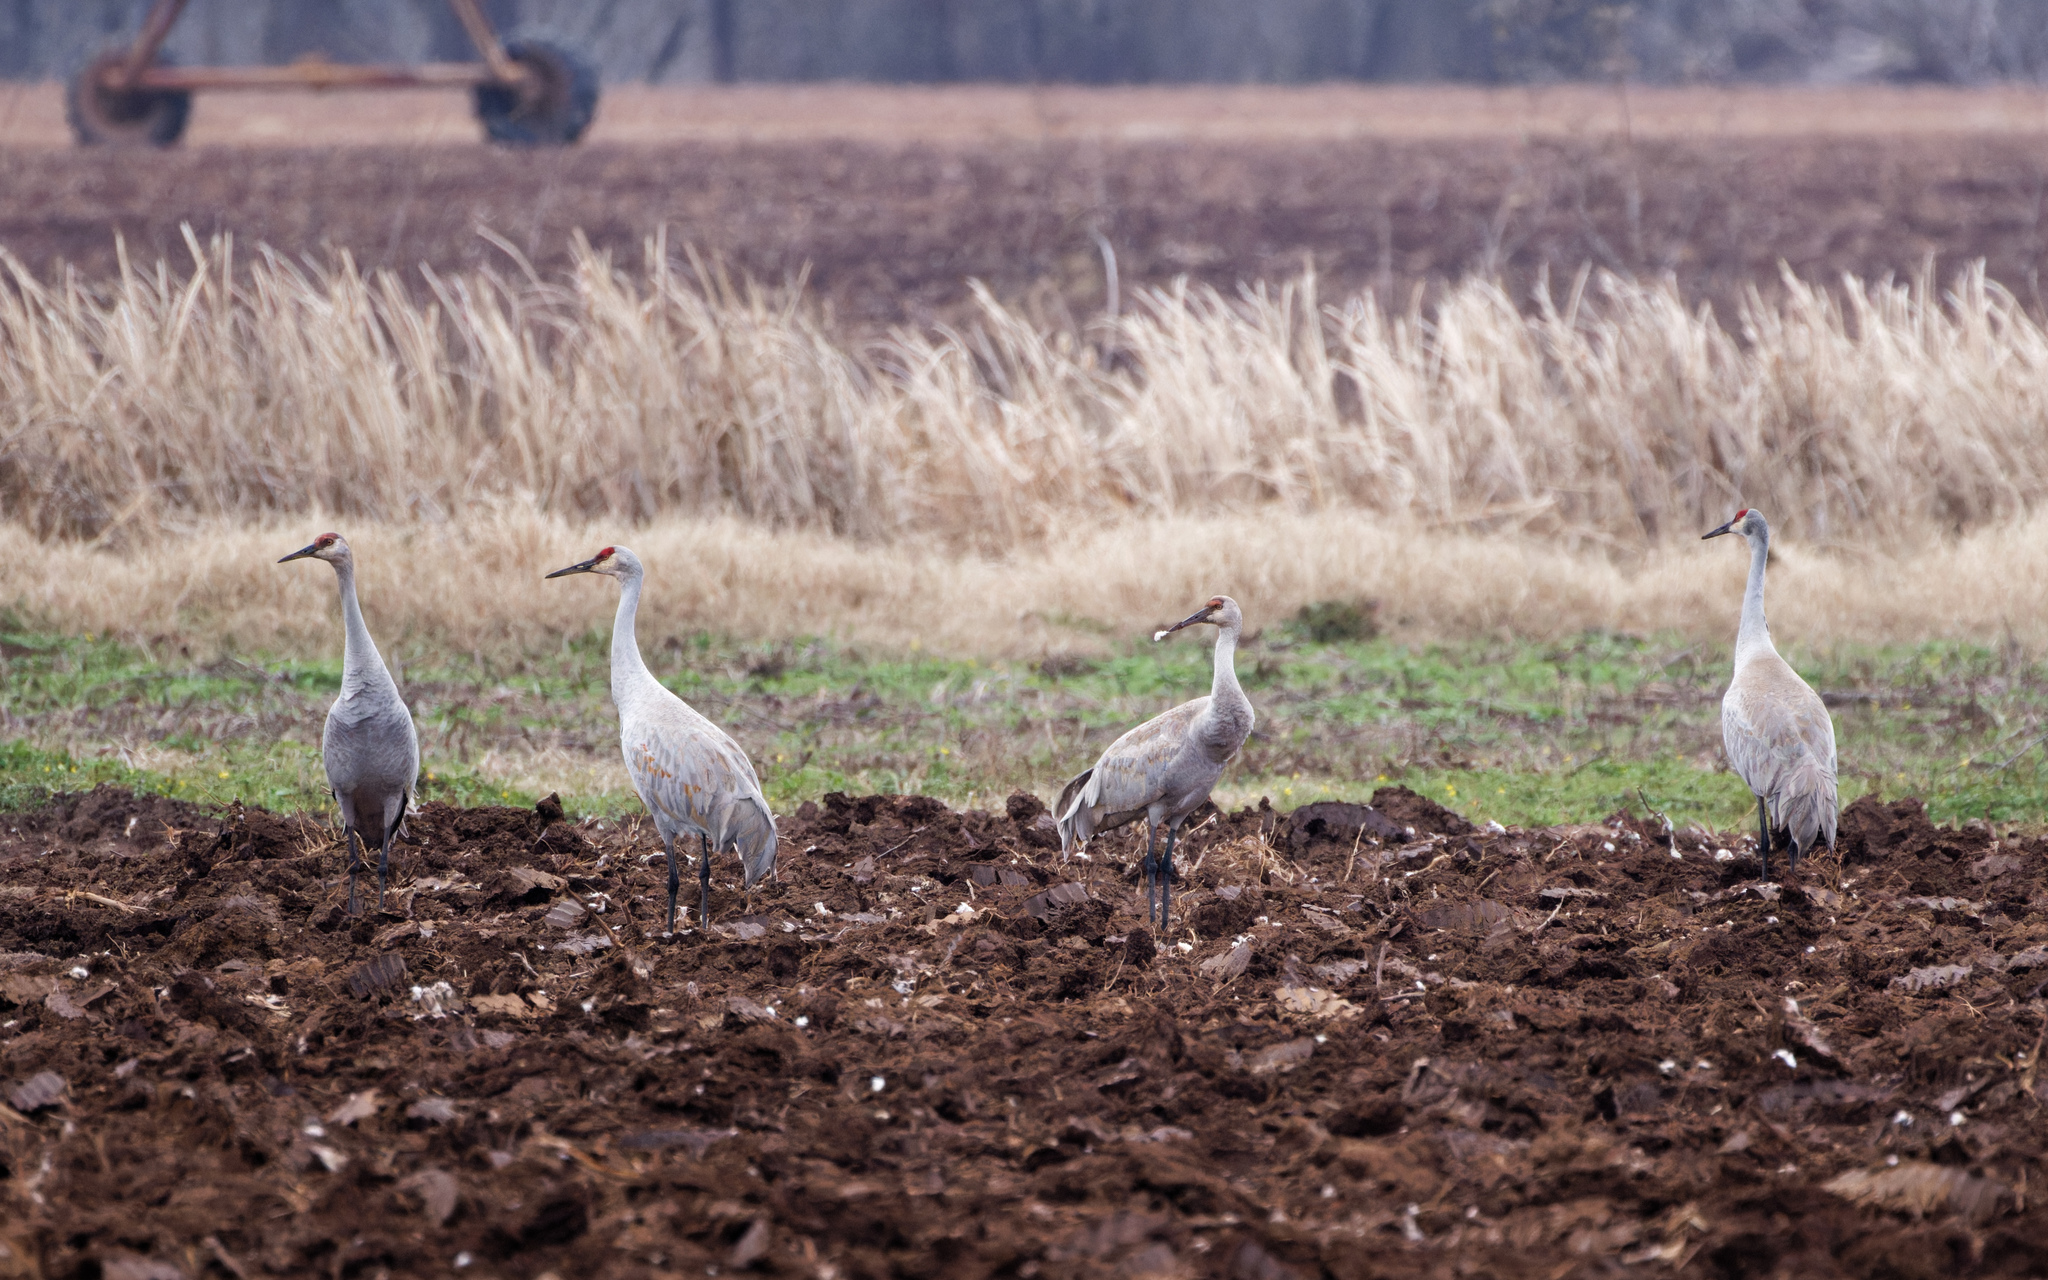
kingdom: Animalia
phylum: Chordata
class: Aves
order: Gruiformes
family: Gruidae
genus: Grus
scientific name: Grus canadensis
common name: Sandhill crane
